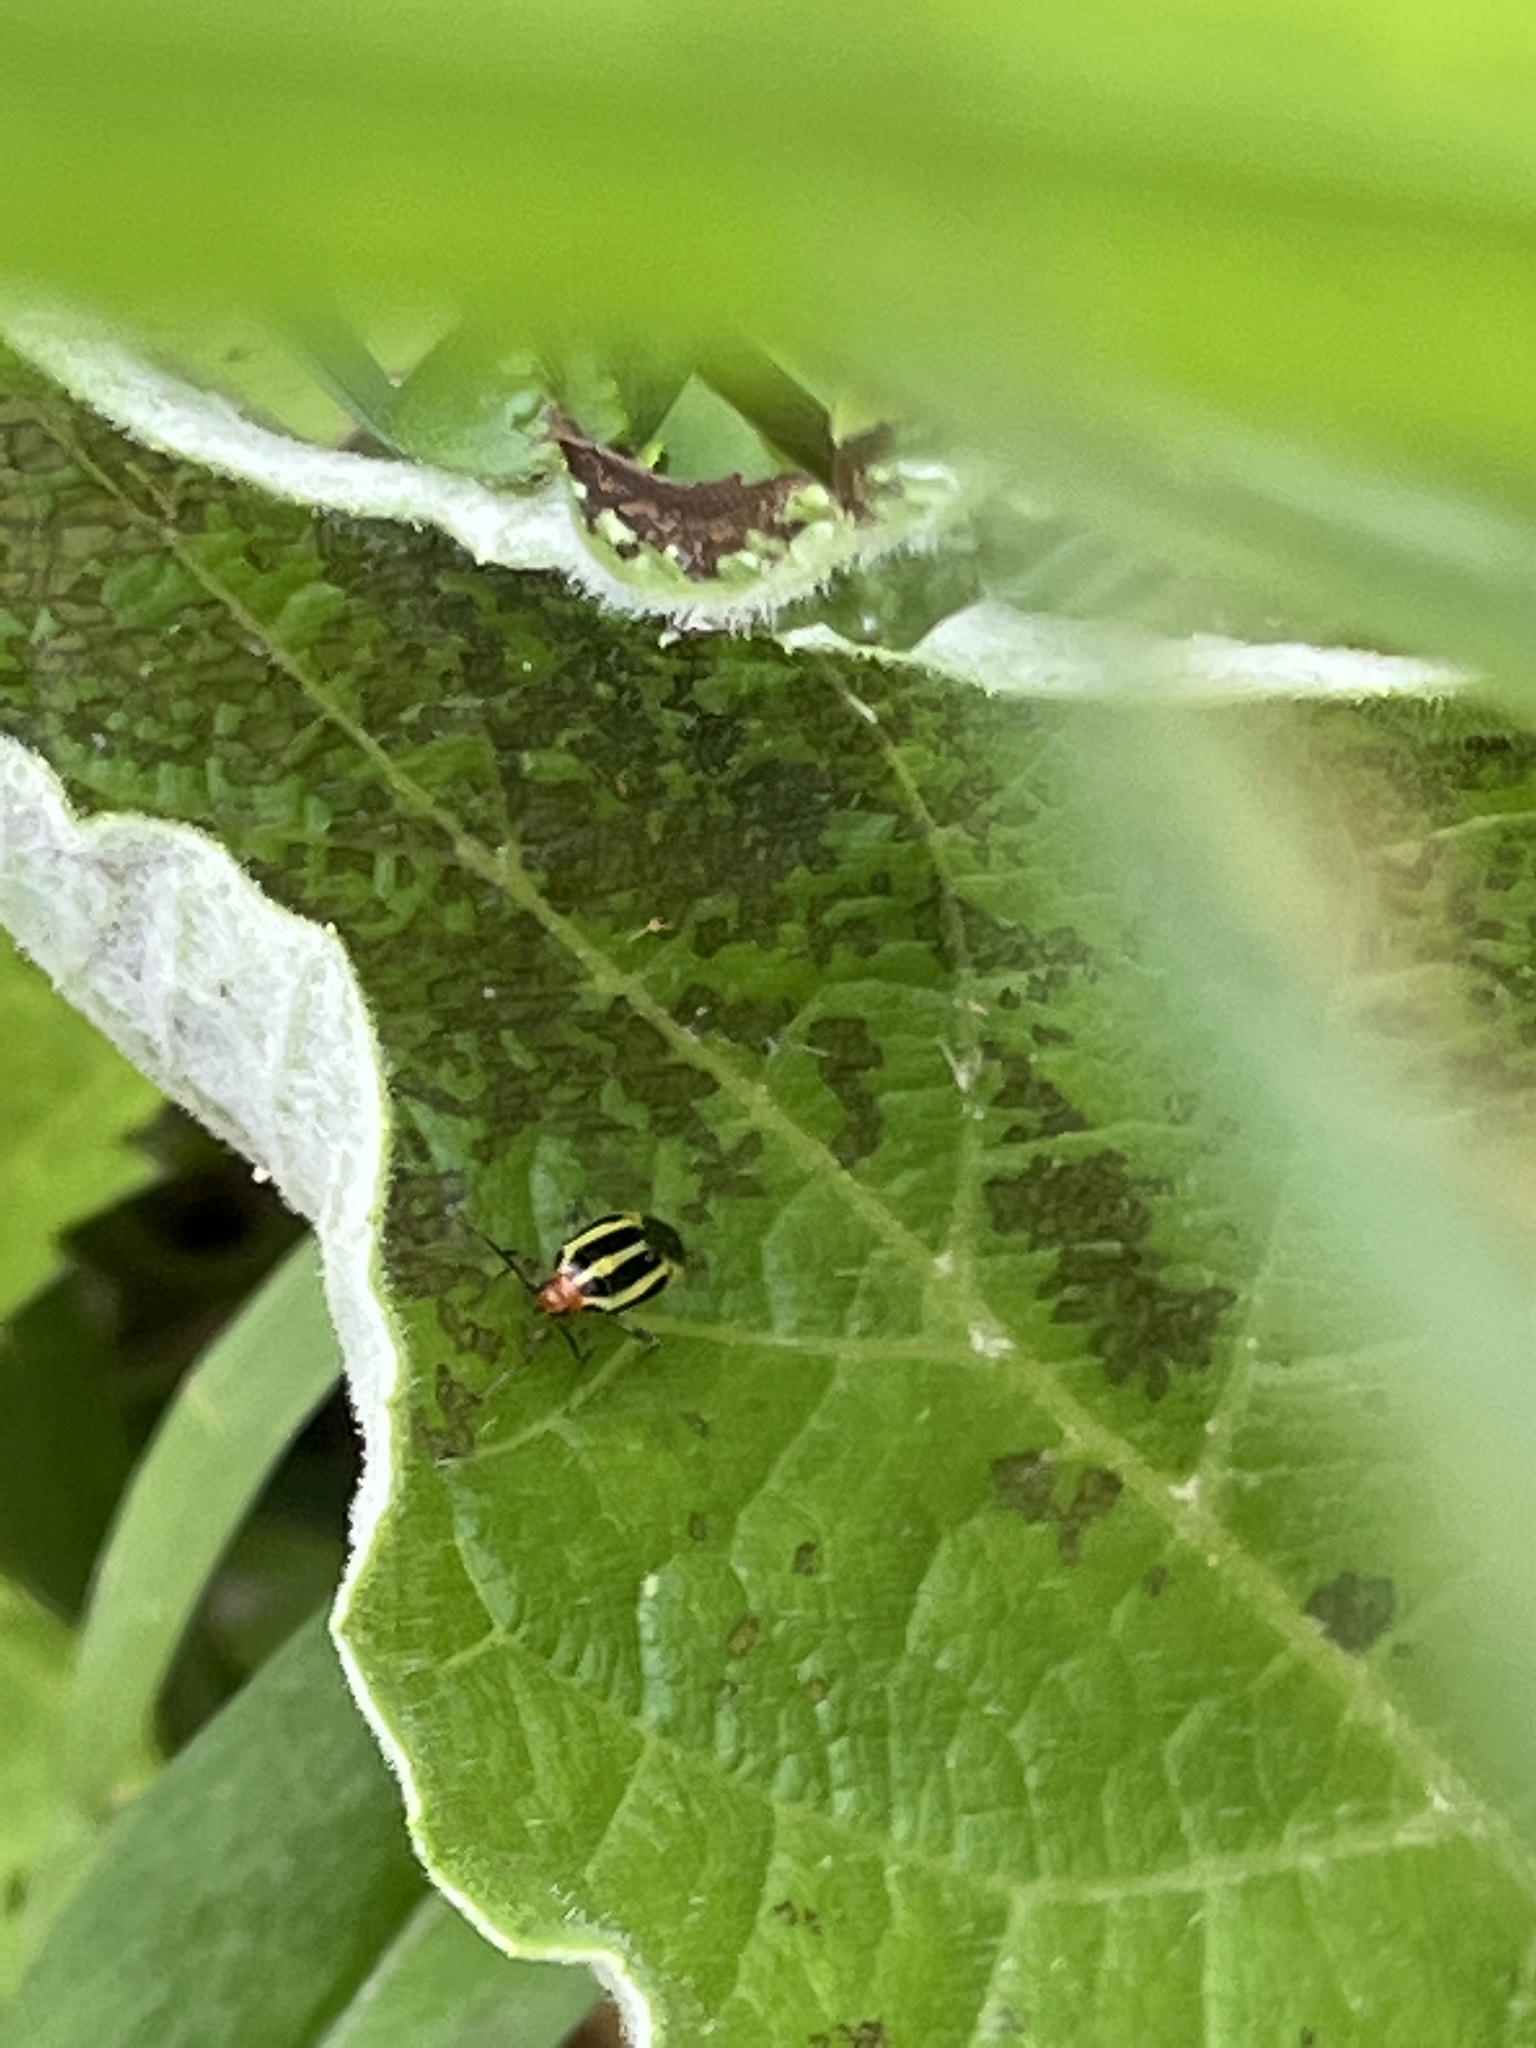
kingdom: Animalia
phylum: Arthropoda
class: Insecta
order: Hemiptera
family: Miridae
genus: Poecilocapsus
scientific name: Poecilocapsus lineatus
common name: Four-lined plant bug
